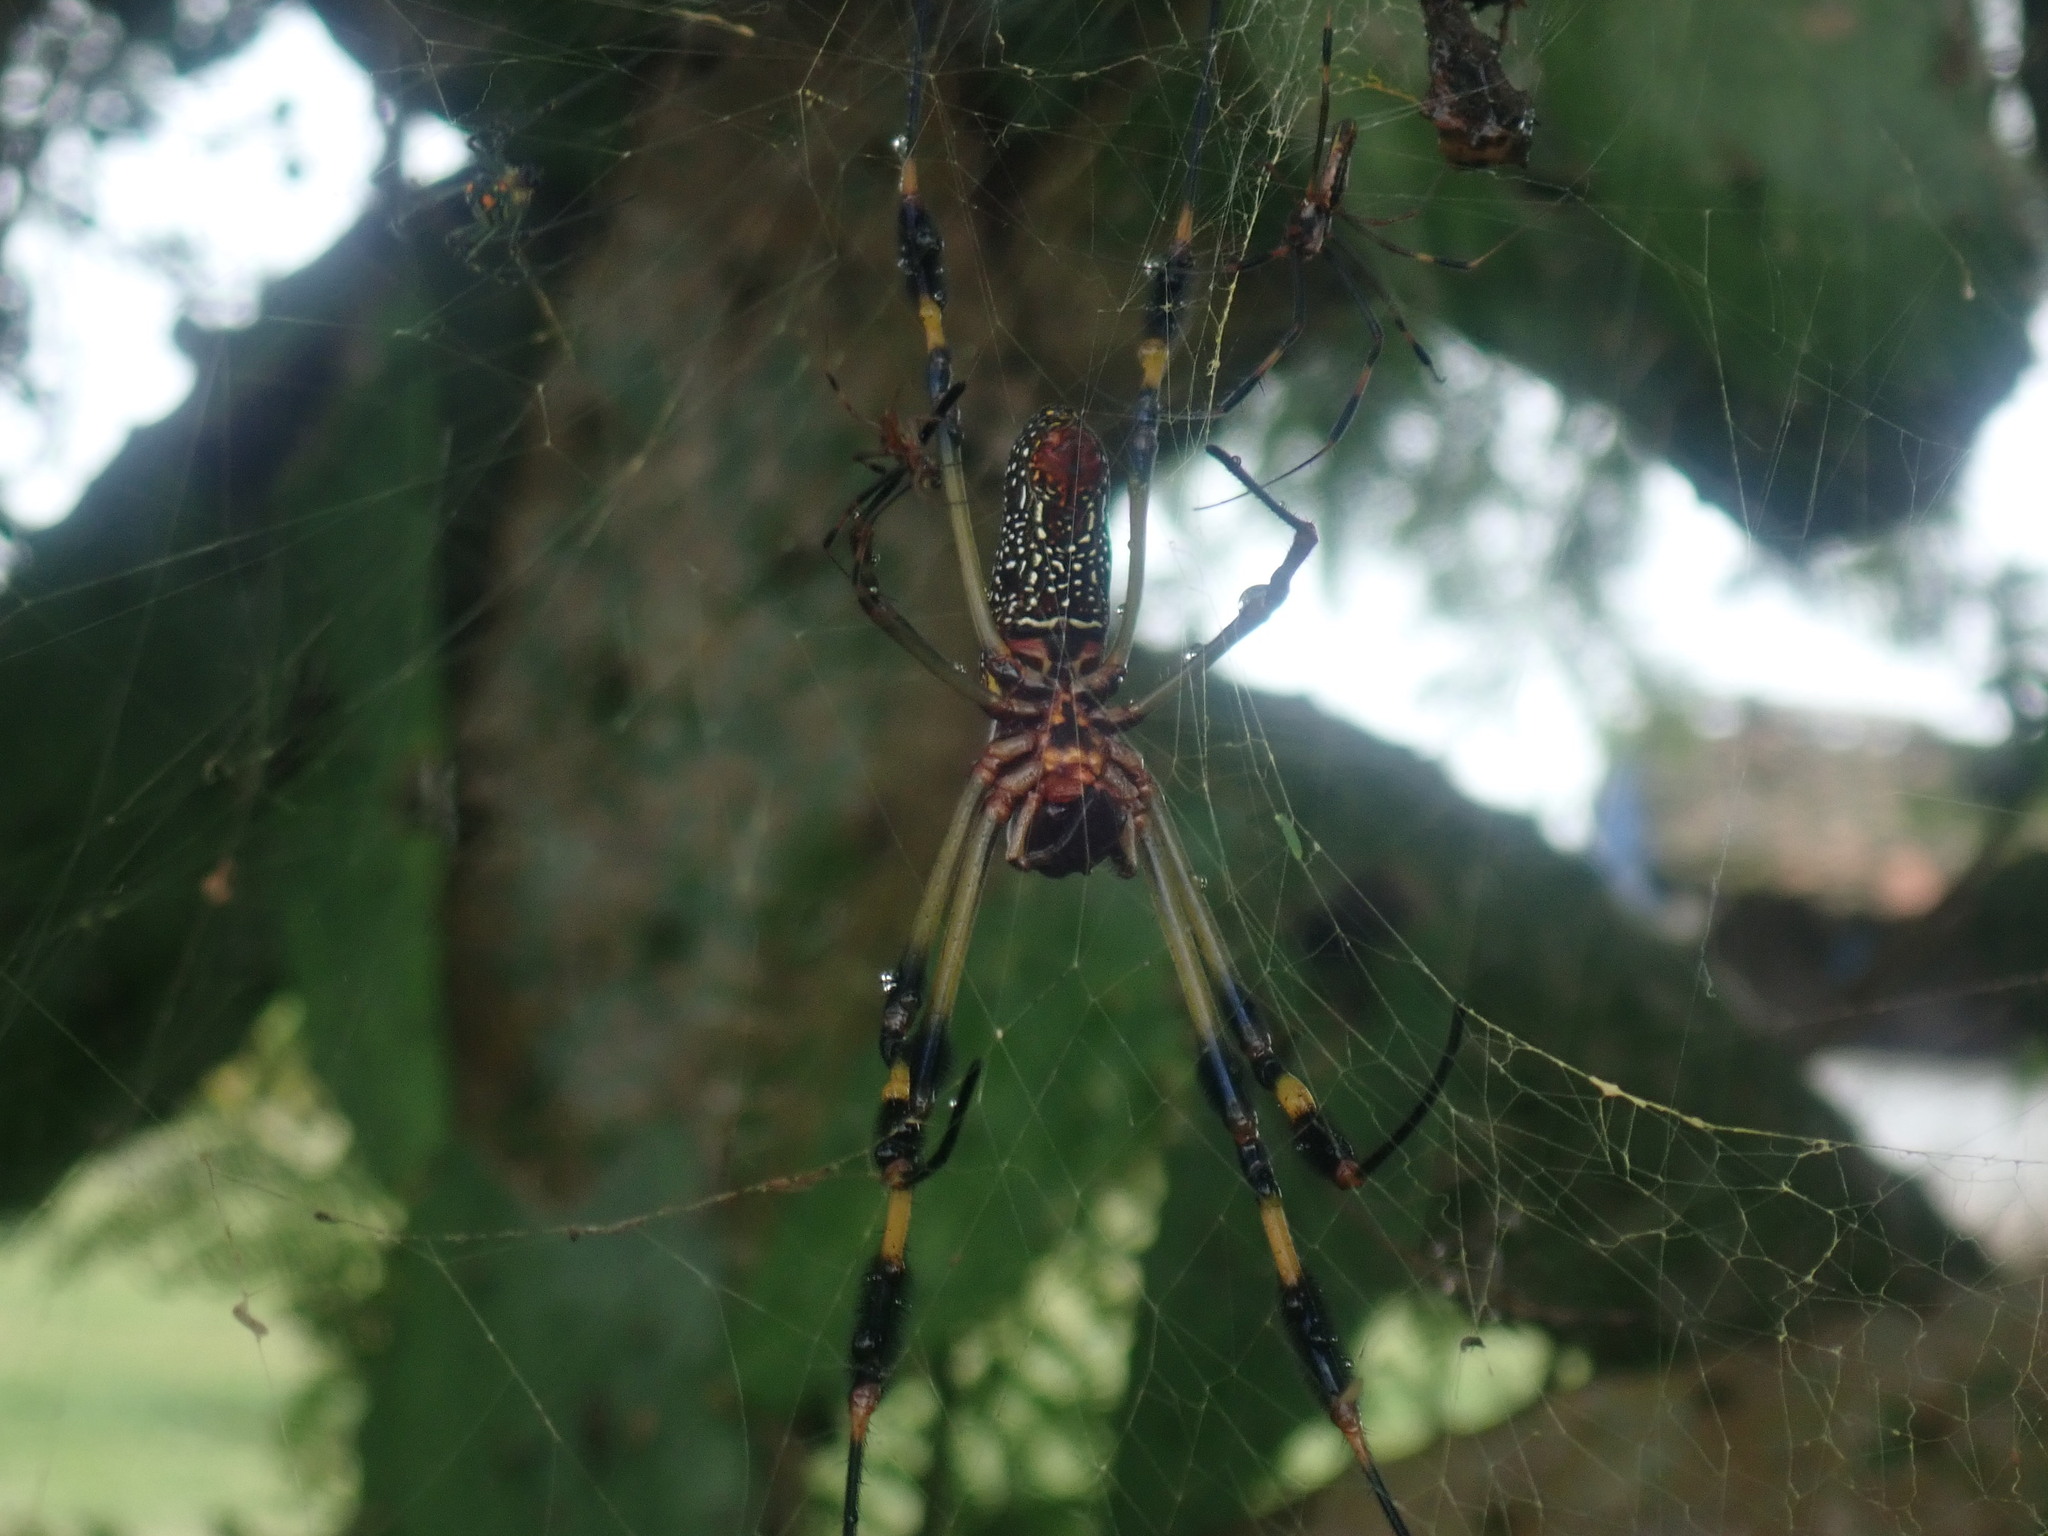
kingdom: Animalia
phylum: Arthropoda
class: Arachnida
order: Araneae
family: Araneidae
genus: Trichonephila
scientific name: Trichonephila clavipes
